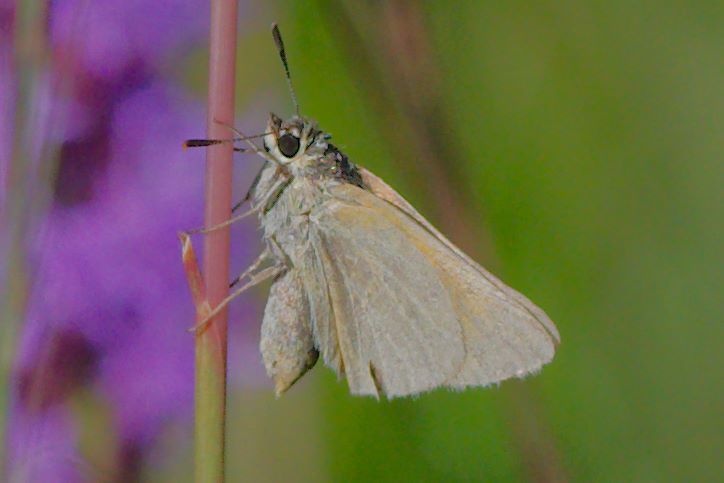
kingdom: Animalia
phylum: Arthropoda
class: Insecta
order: Lepidoptera
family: Hesperiidae
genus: Atrytone
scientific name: Atrytone arogos
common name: Arogos skipper
